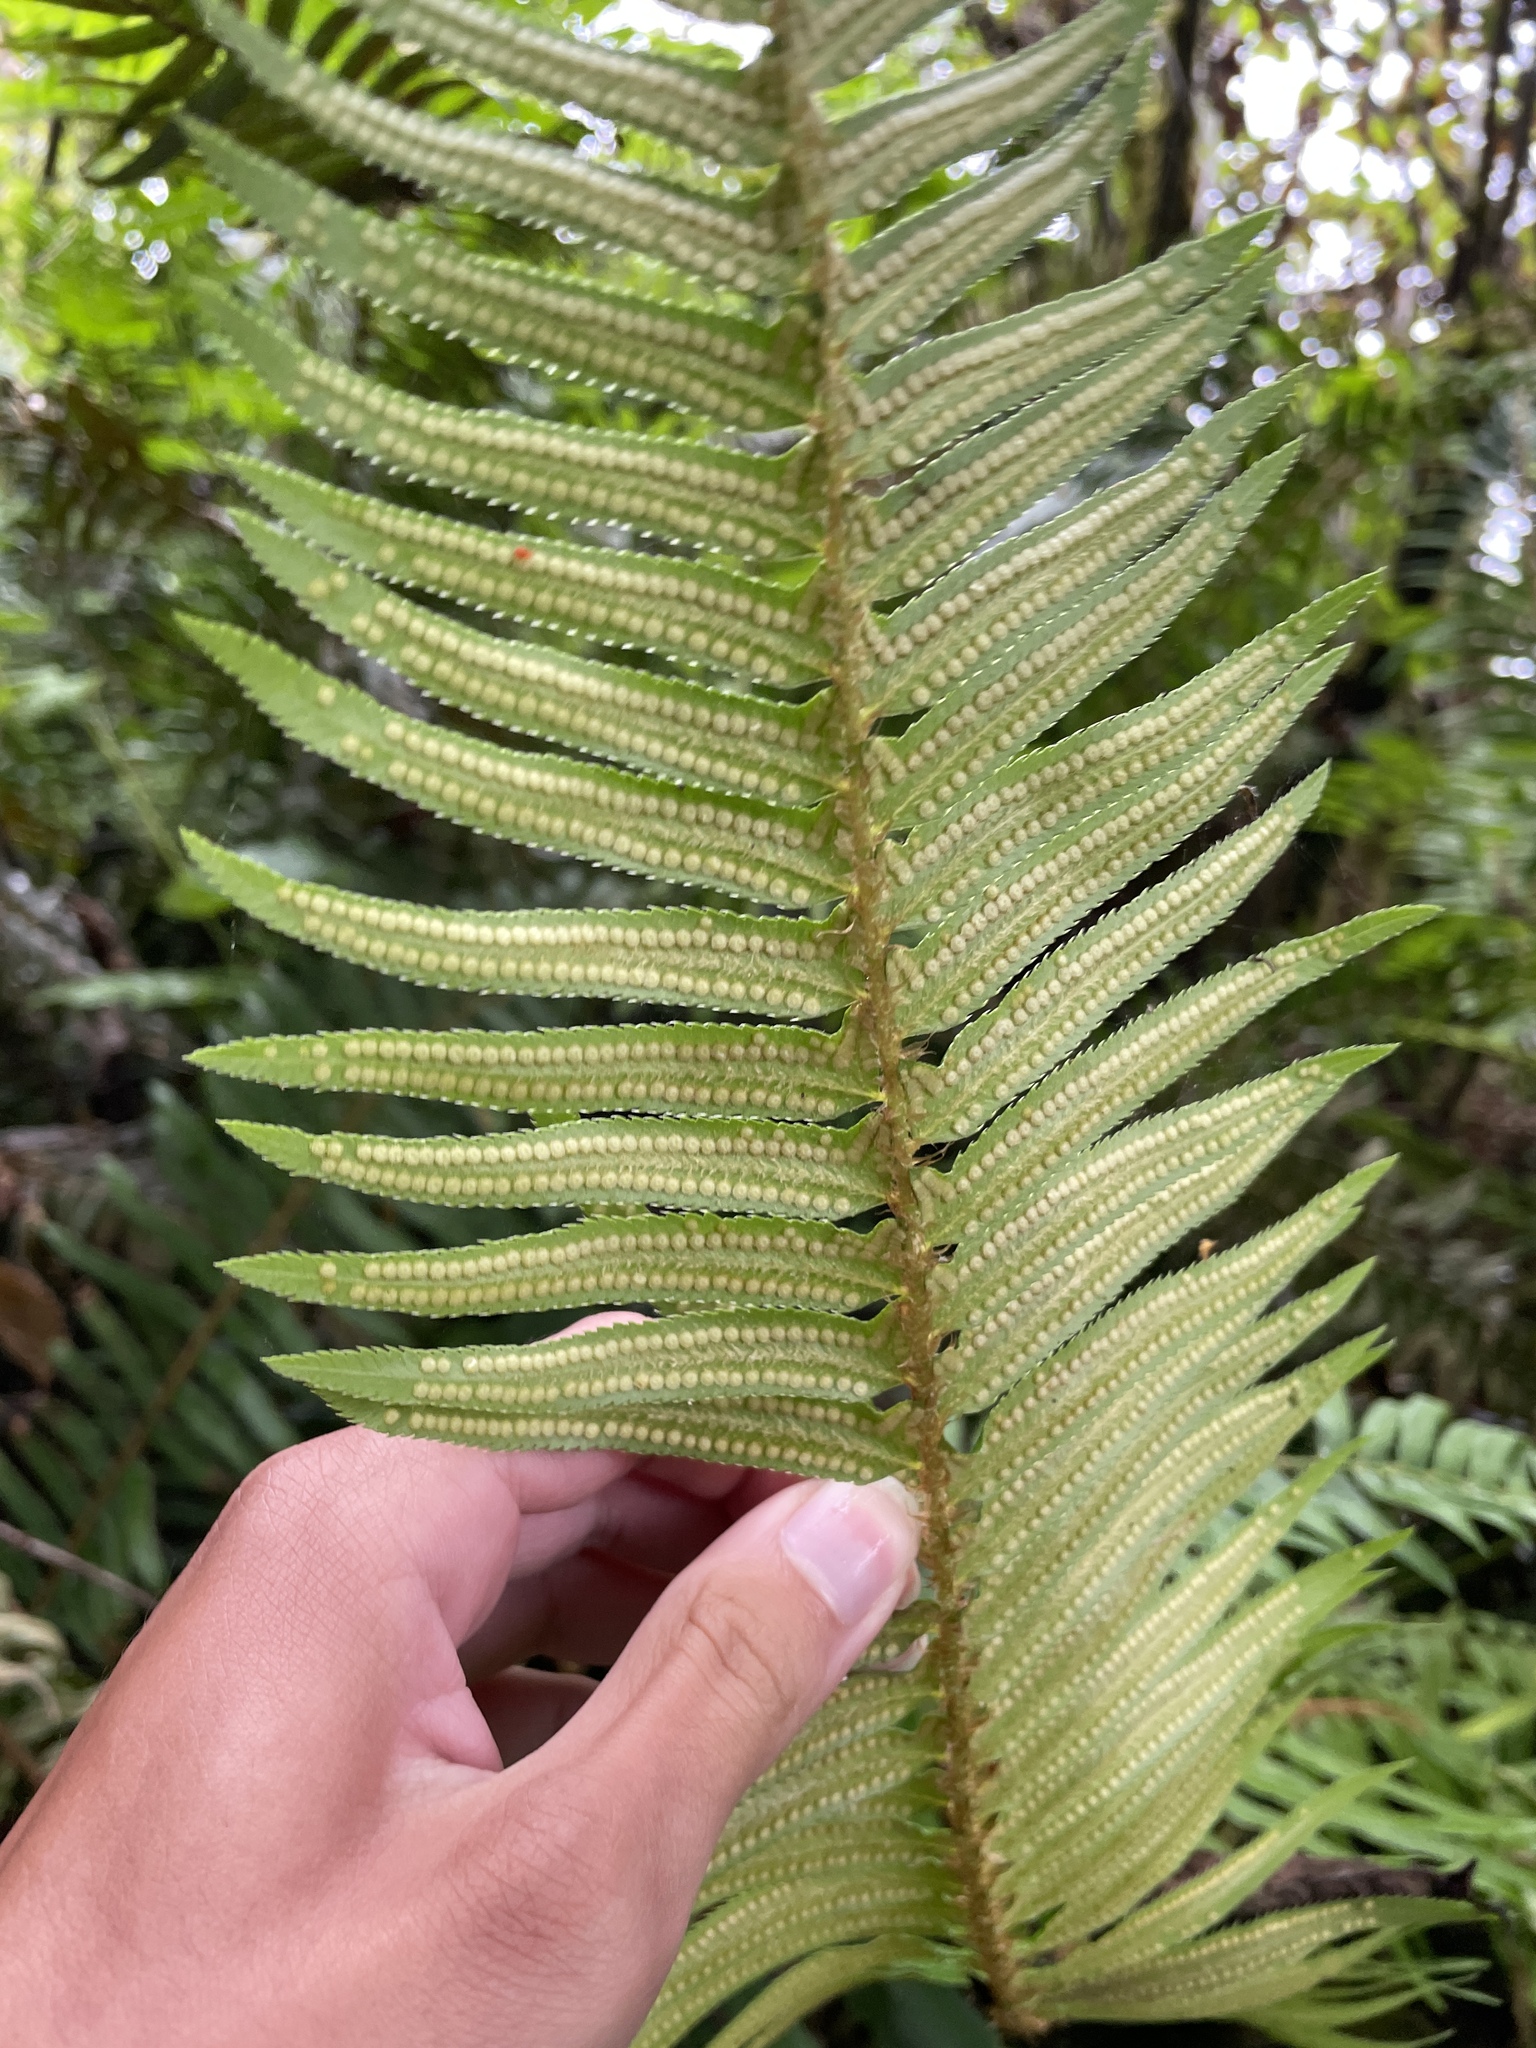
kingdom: Plantae
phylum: Tracheophyta
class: Polypodiopsida
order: Polypodiales
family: Dryopteridaceae
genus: Polystichum
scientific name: Polystichum munitum
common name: Western sword-fern
